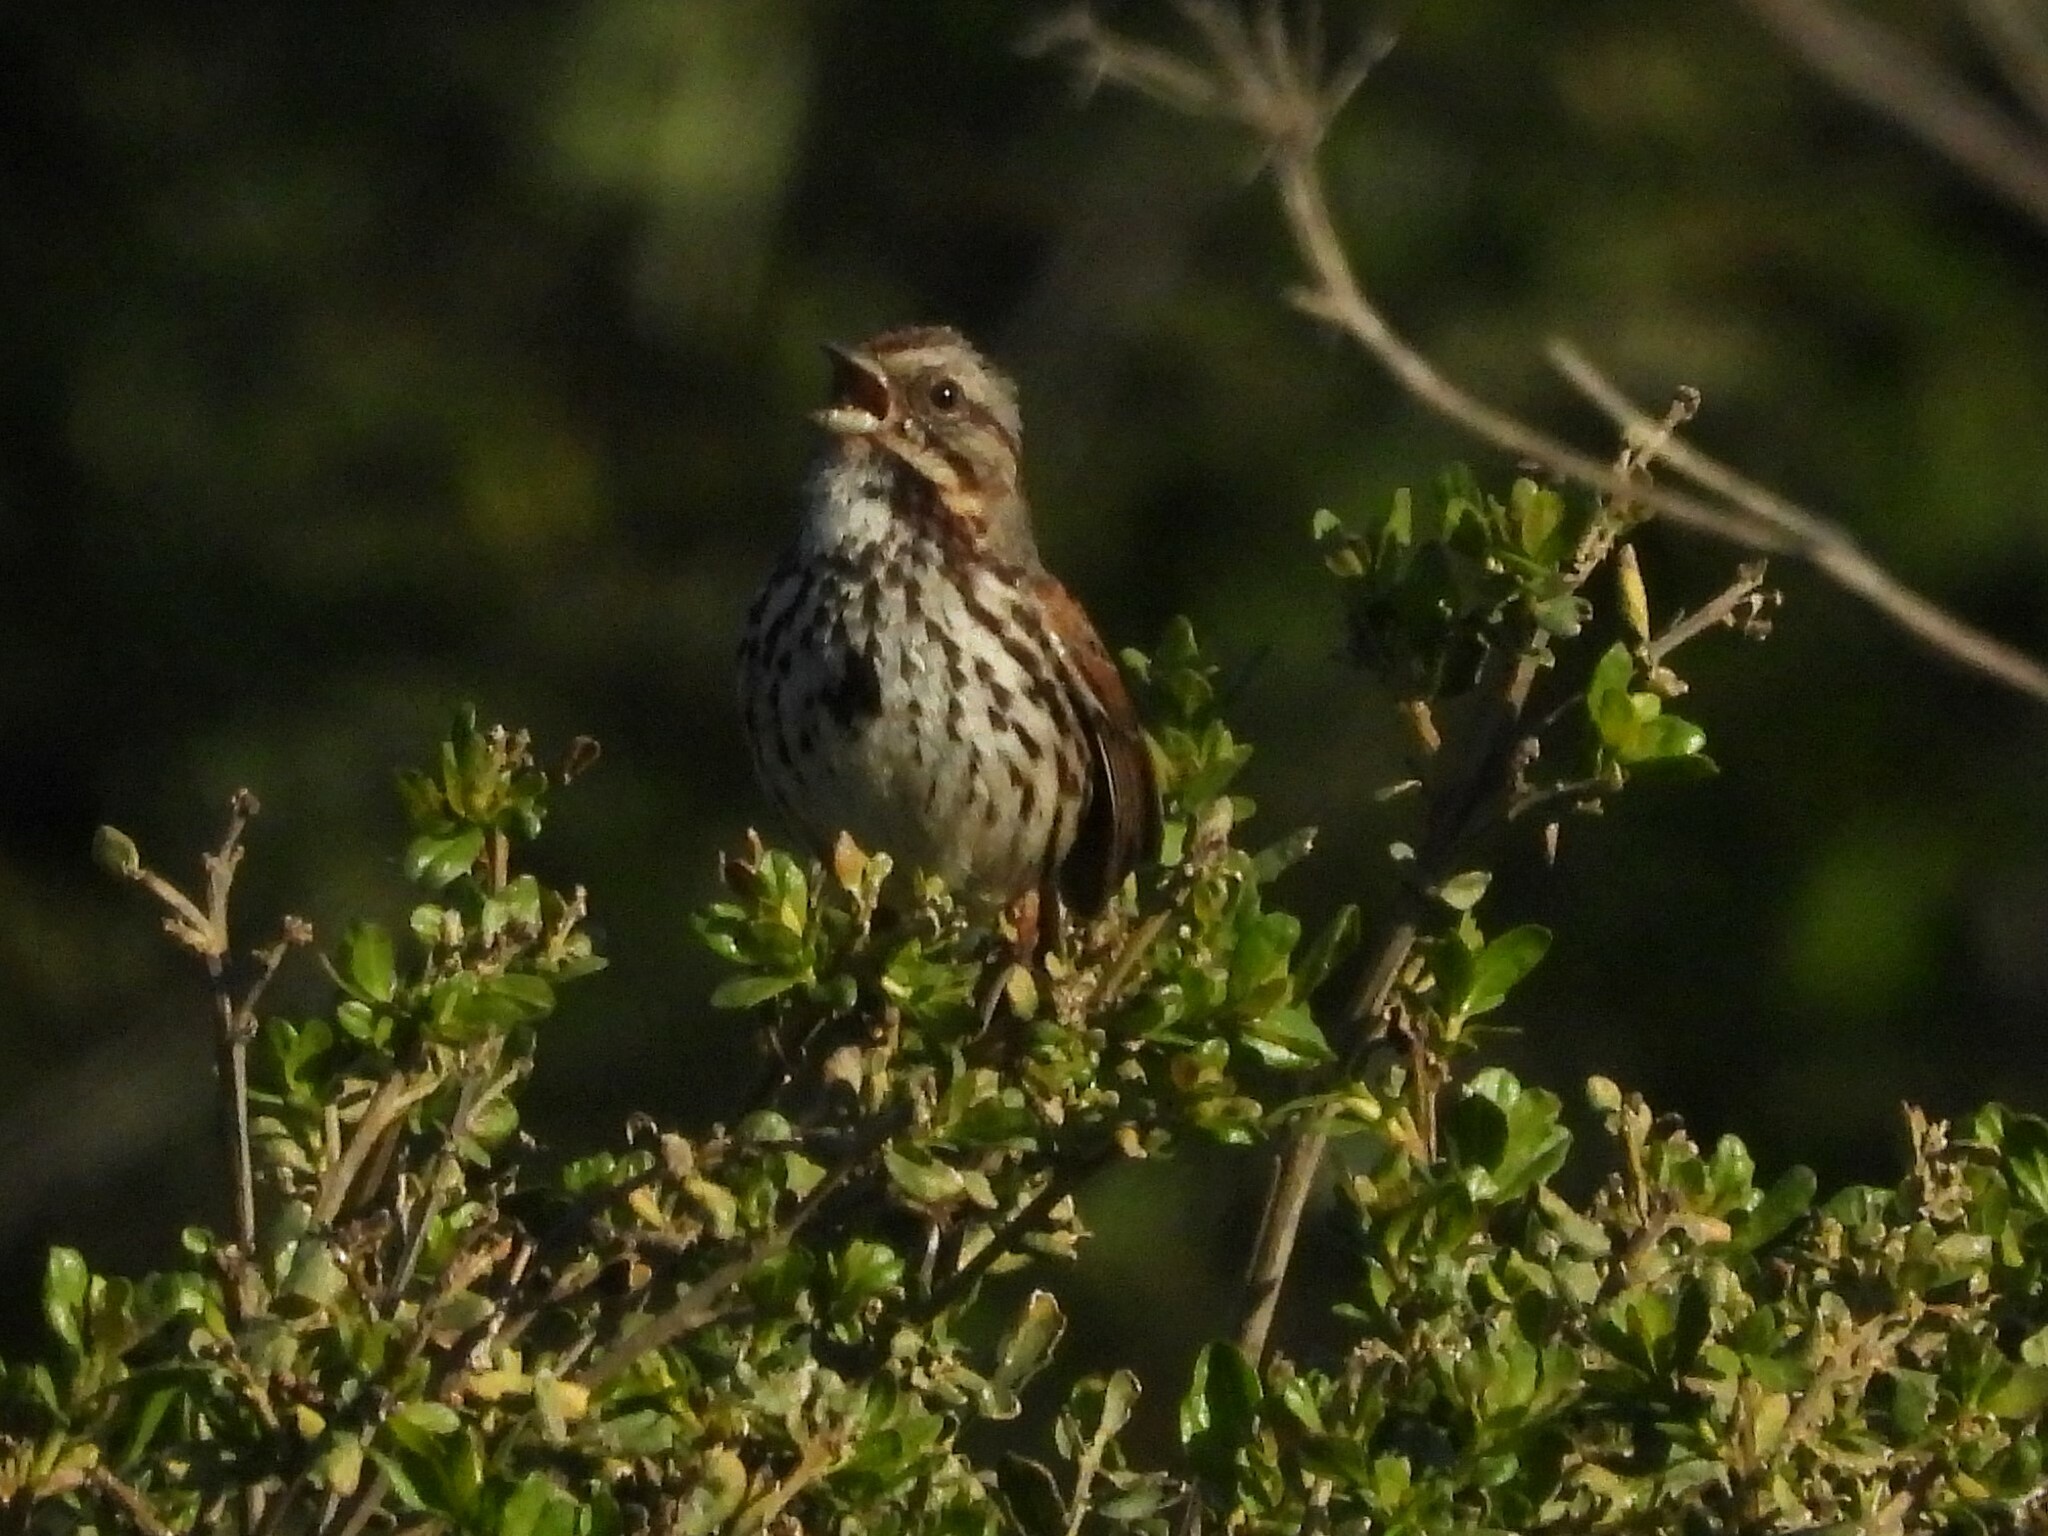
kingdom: Animalia
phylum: Chordata
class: Aves
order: Passeriformes
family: Passerellidae
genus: Melospiza
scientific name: Melospiza melodia
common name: Song sparrow
